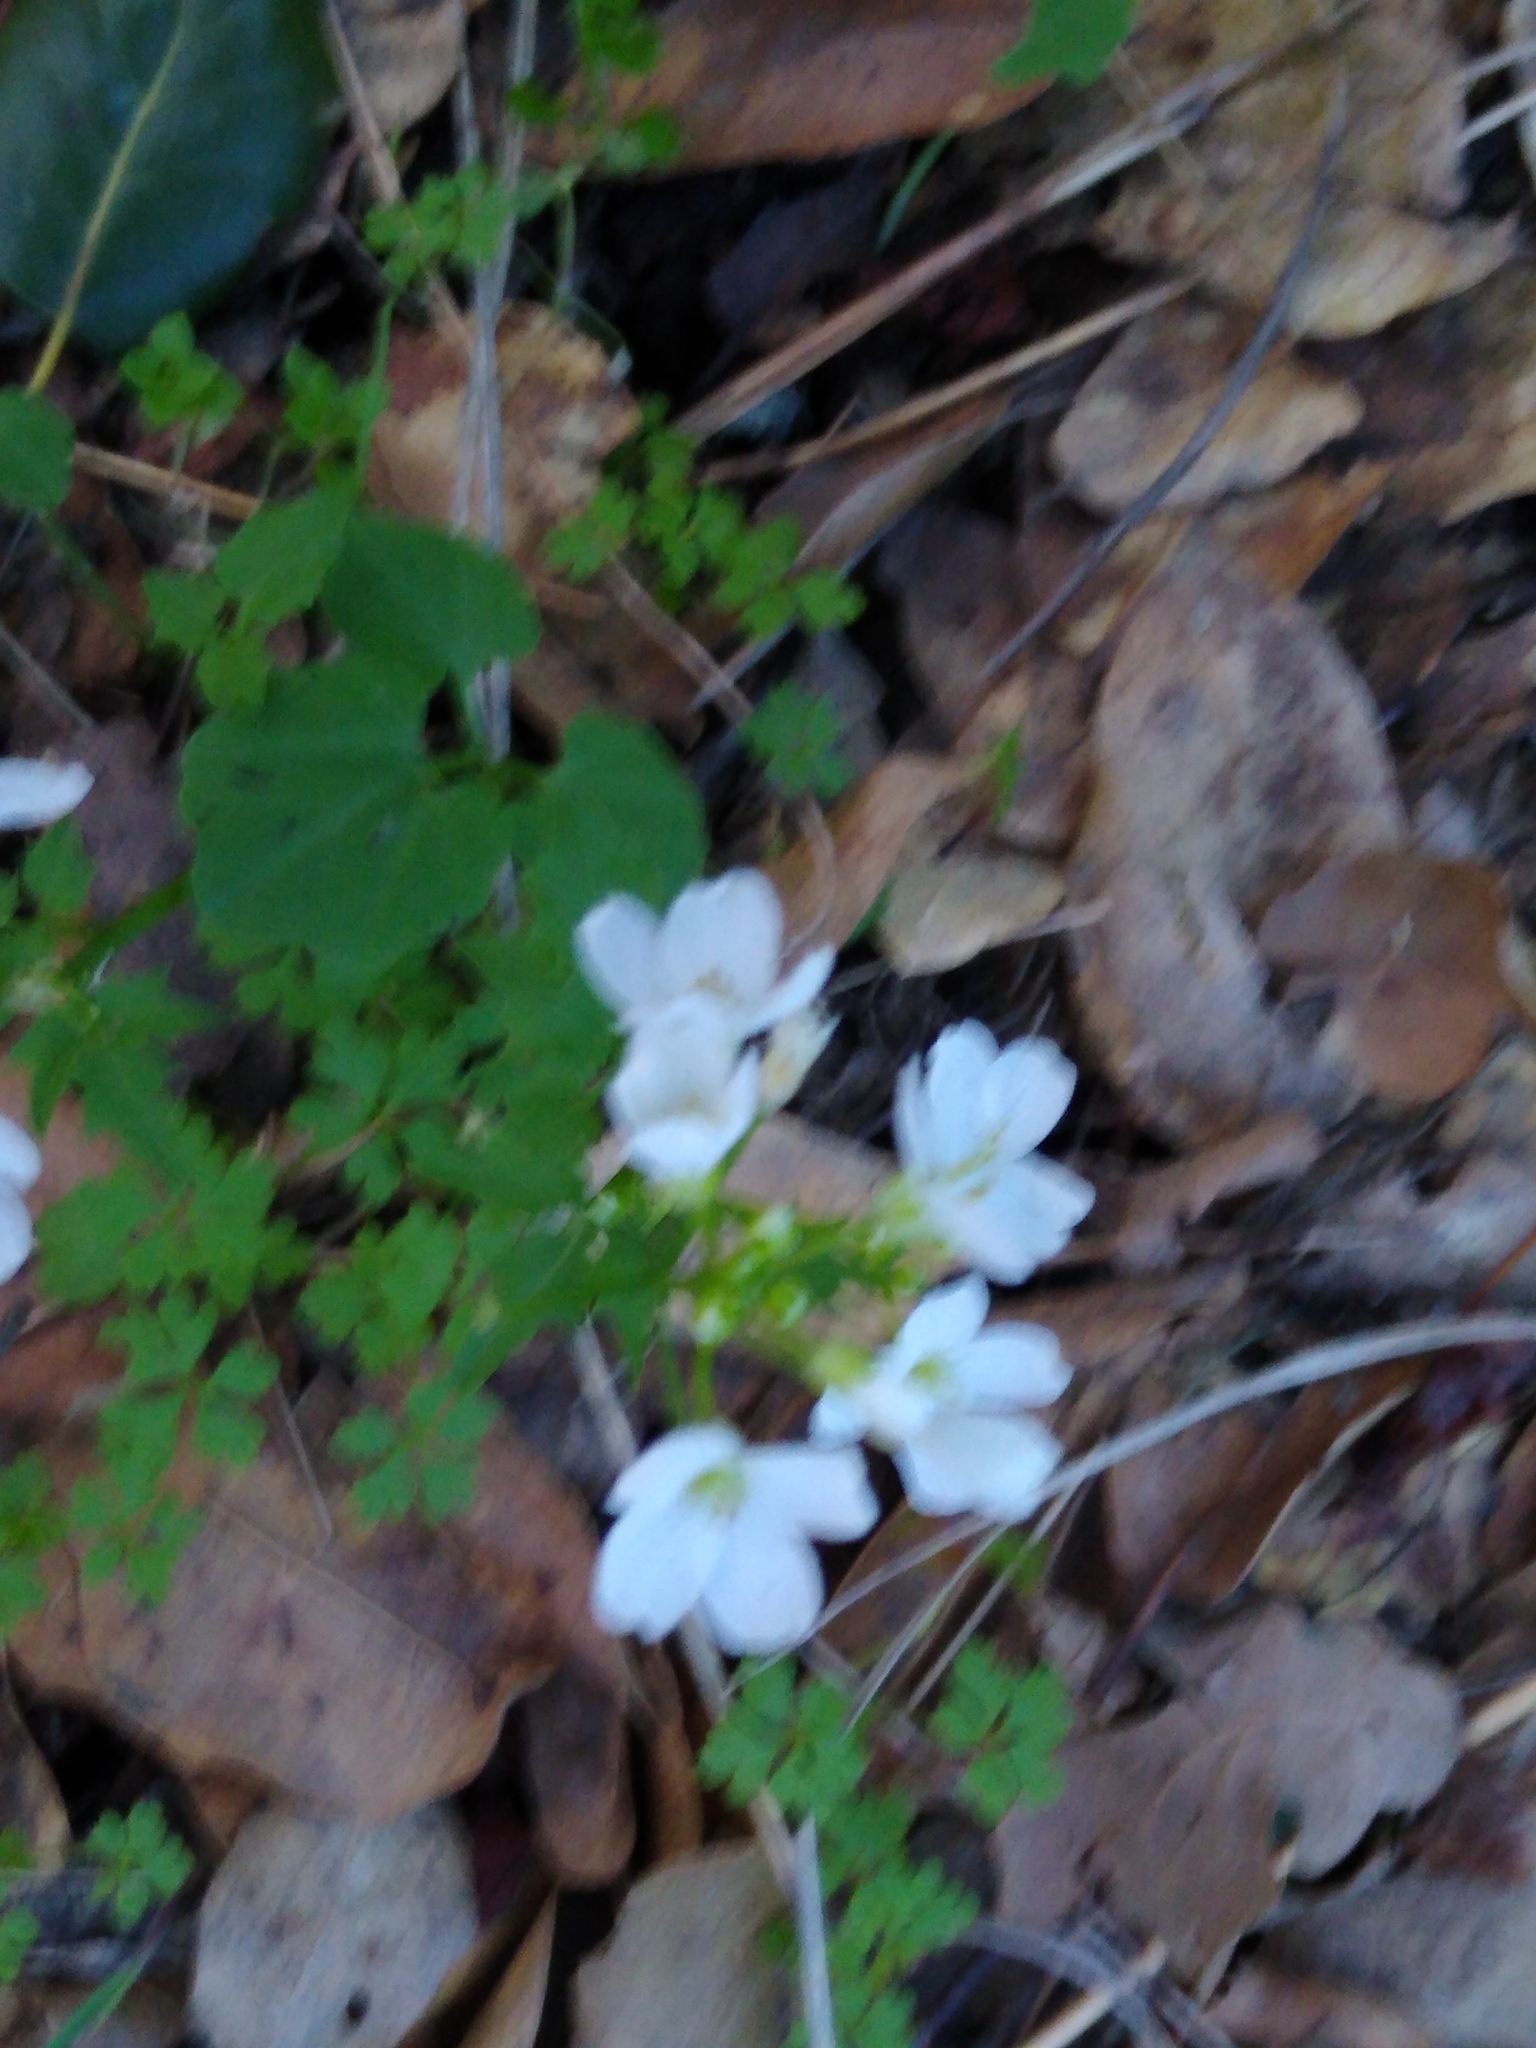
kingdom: Plantae
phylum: Tracheophyta
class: Magnoliopsida
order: Brassicales
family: Brassicaceae
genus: Cardamine
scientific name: Cardamine californica
